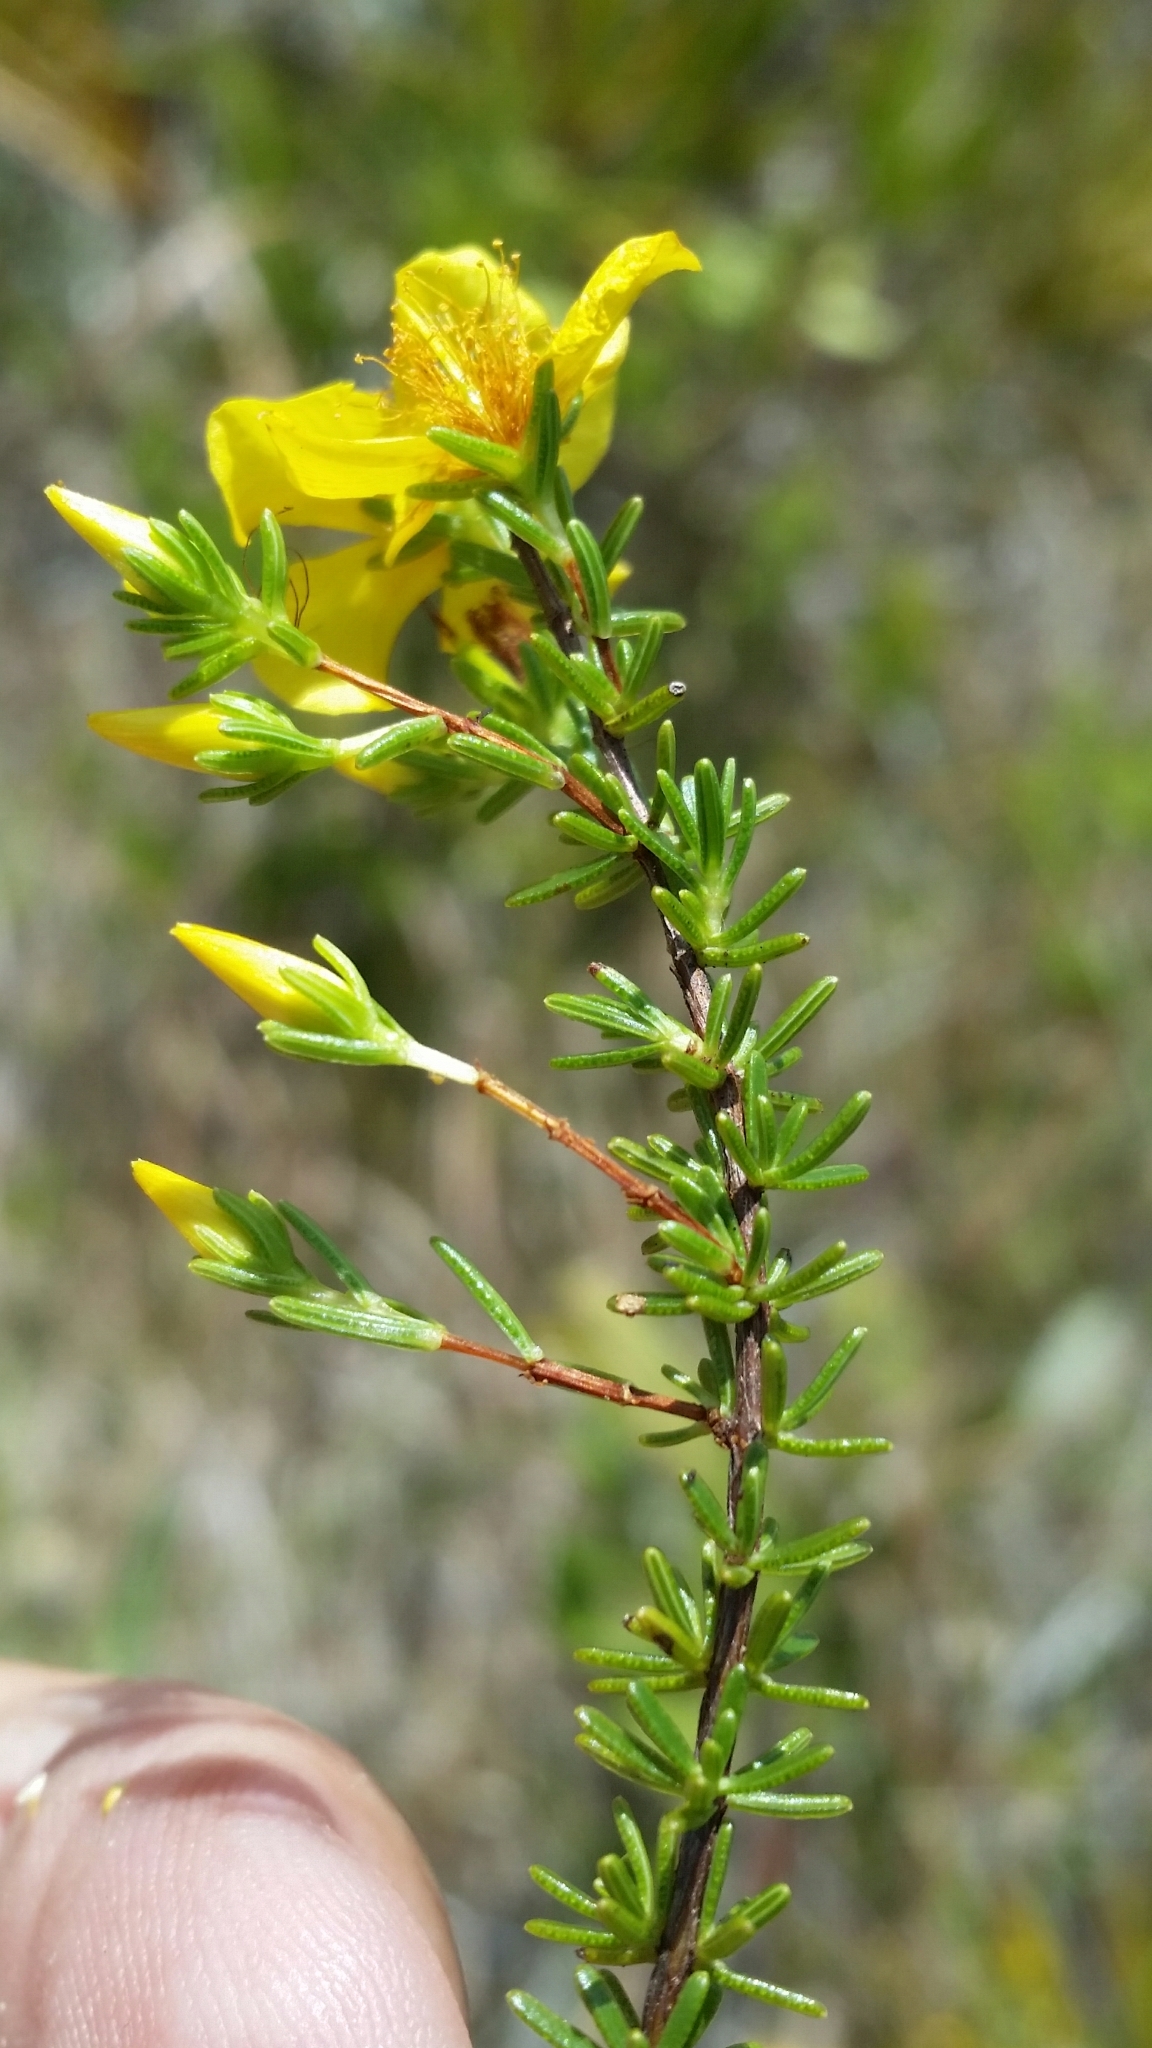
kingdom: Plantae
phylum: Tracheophyta
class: Magnoliopsida
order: Malpighiales
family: Hypericaceae
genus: Hypericum
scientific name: Hypericum tenuifolium
